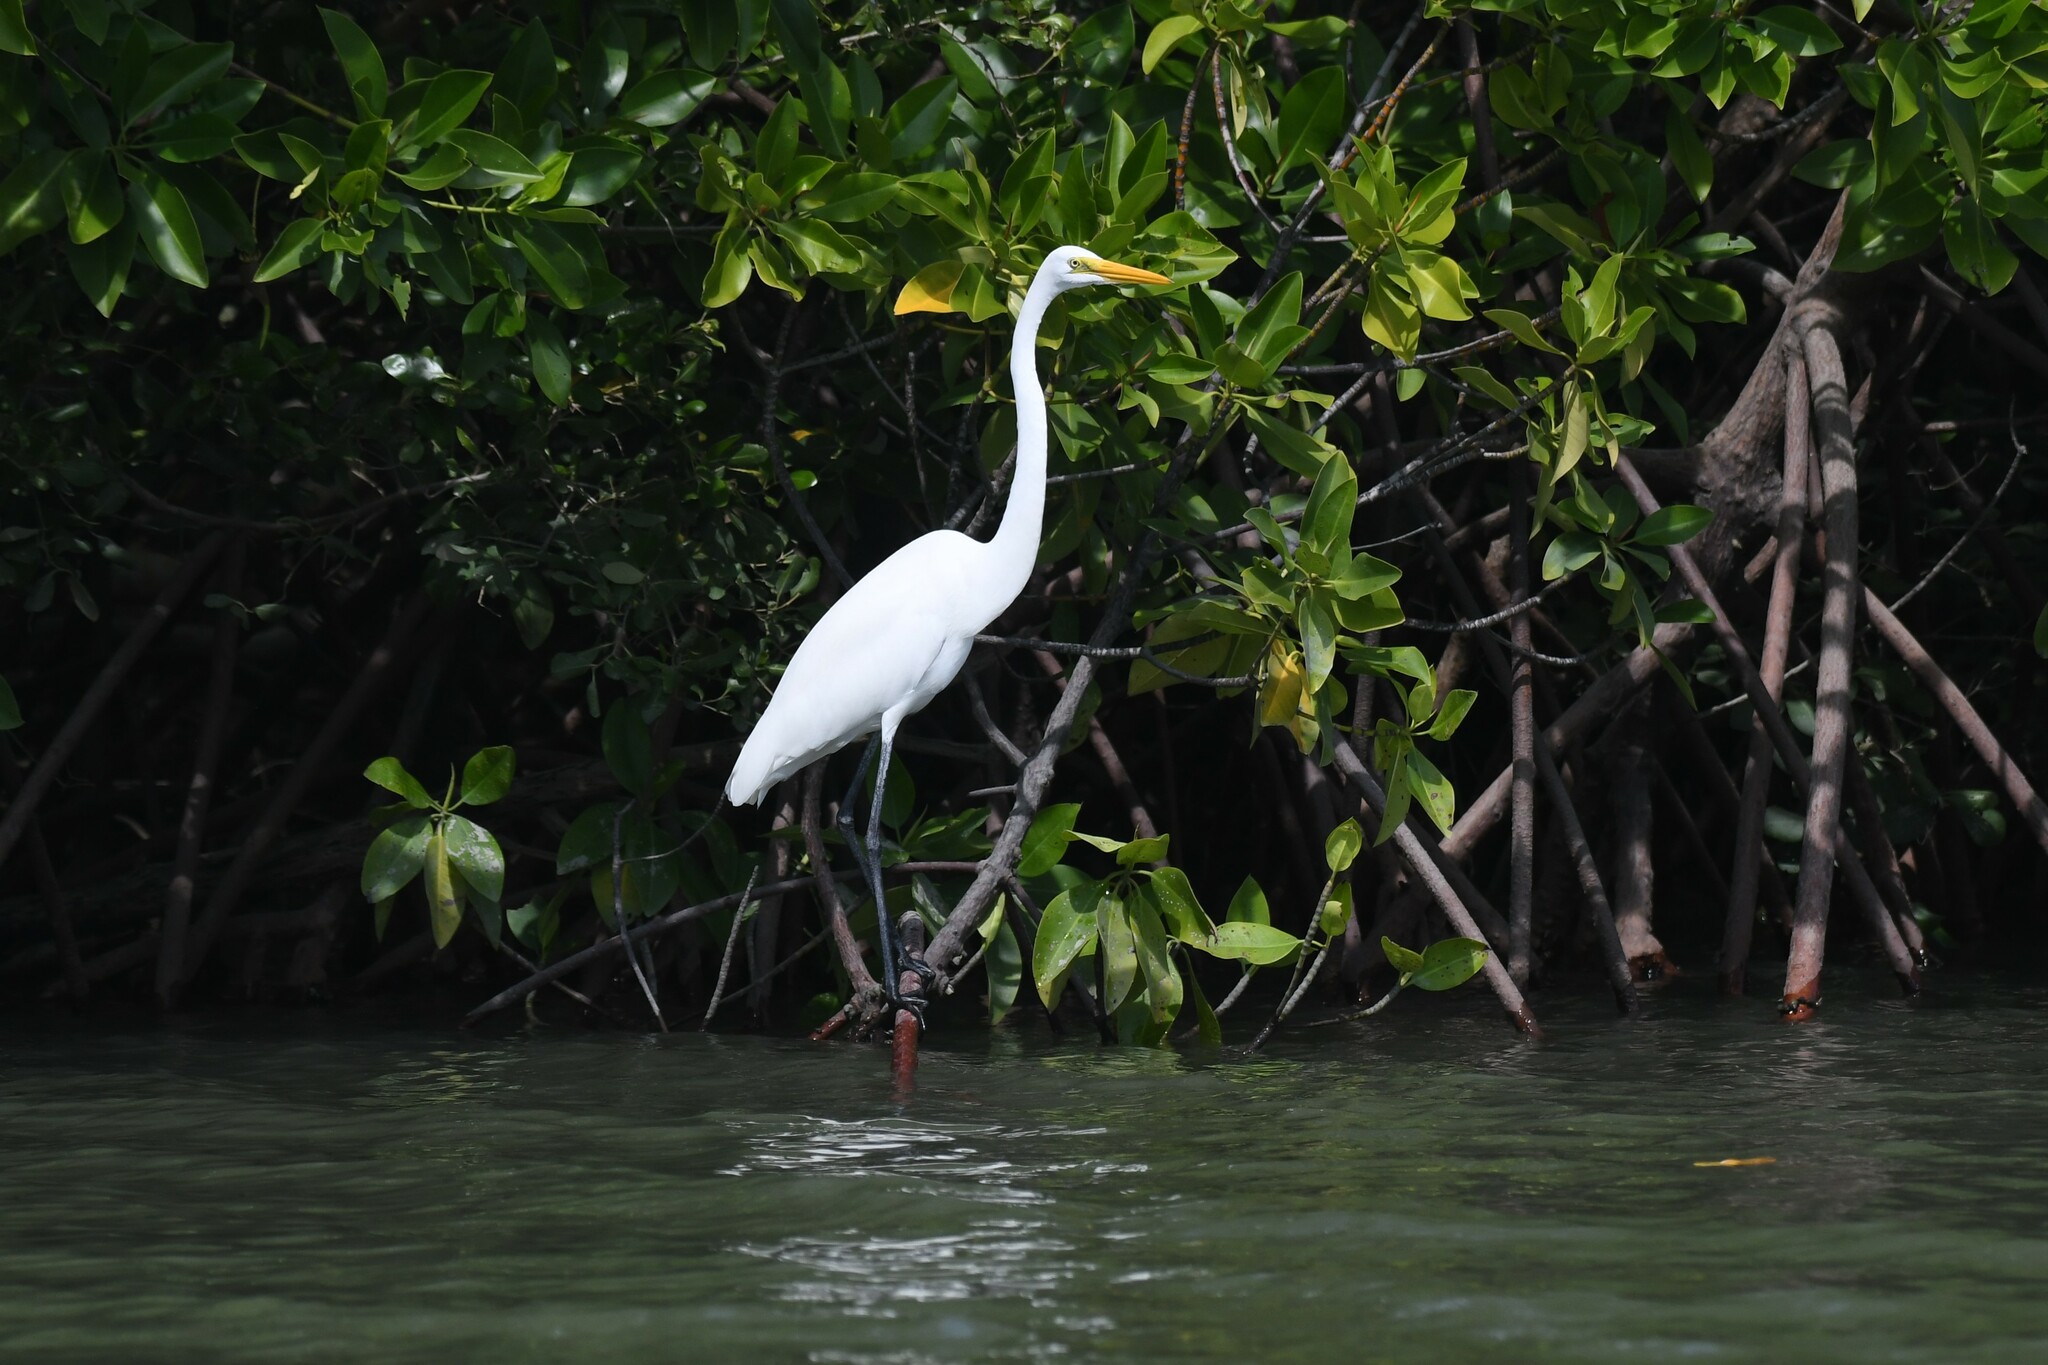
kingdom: Animalia
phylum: Chordata
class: Aves
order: Pelecaniformes
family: Ardeidae
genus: Ardea
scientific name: Ardea alba
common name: Great egret
